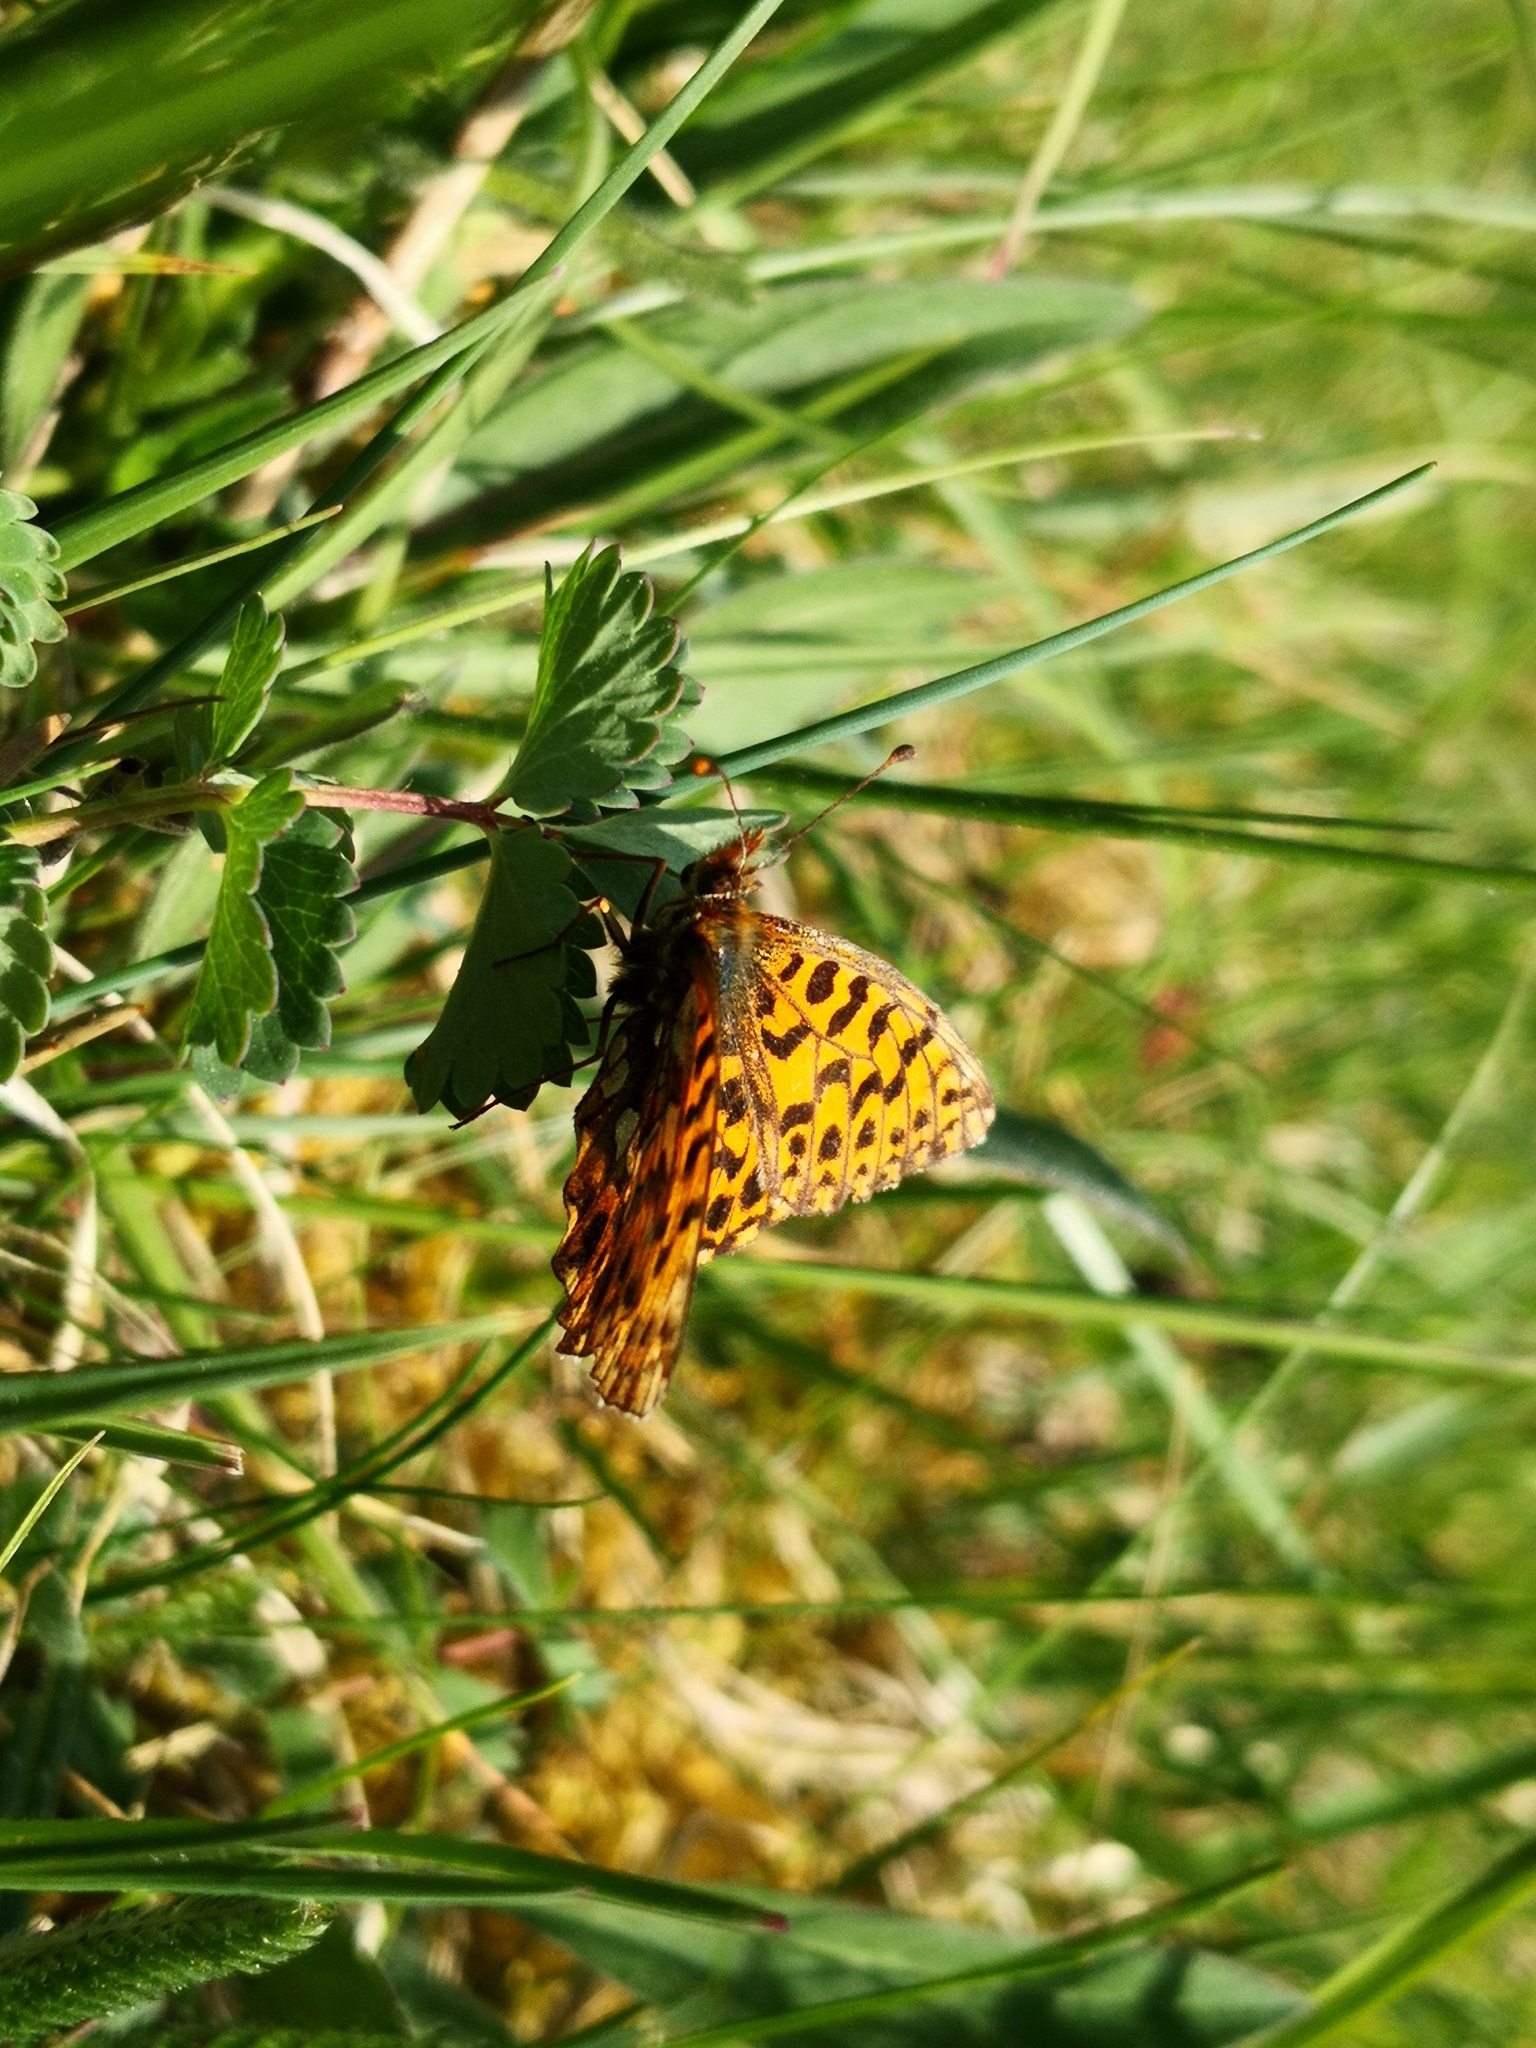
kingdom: Animalia
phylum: Arthropoda
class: Insecta
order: Lepidoptera
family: Nymphalidae
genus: Boloria
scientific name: Boloria dia
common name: Weaver's fritillary
